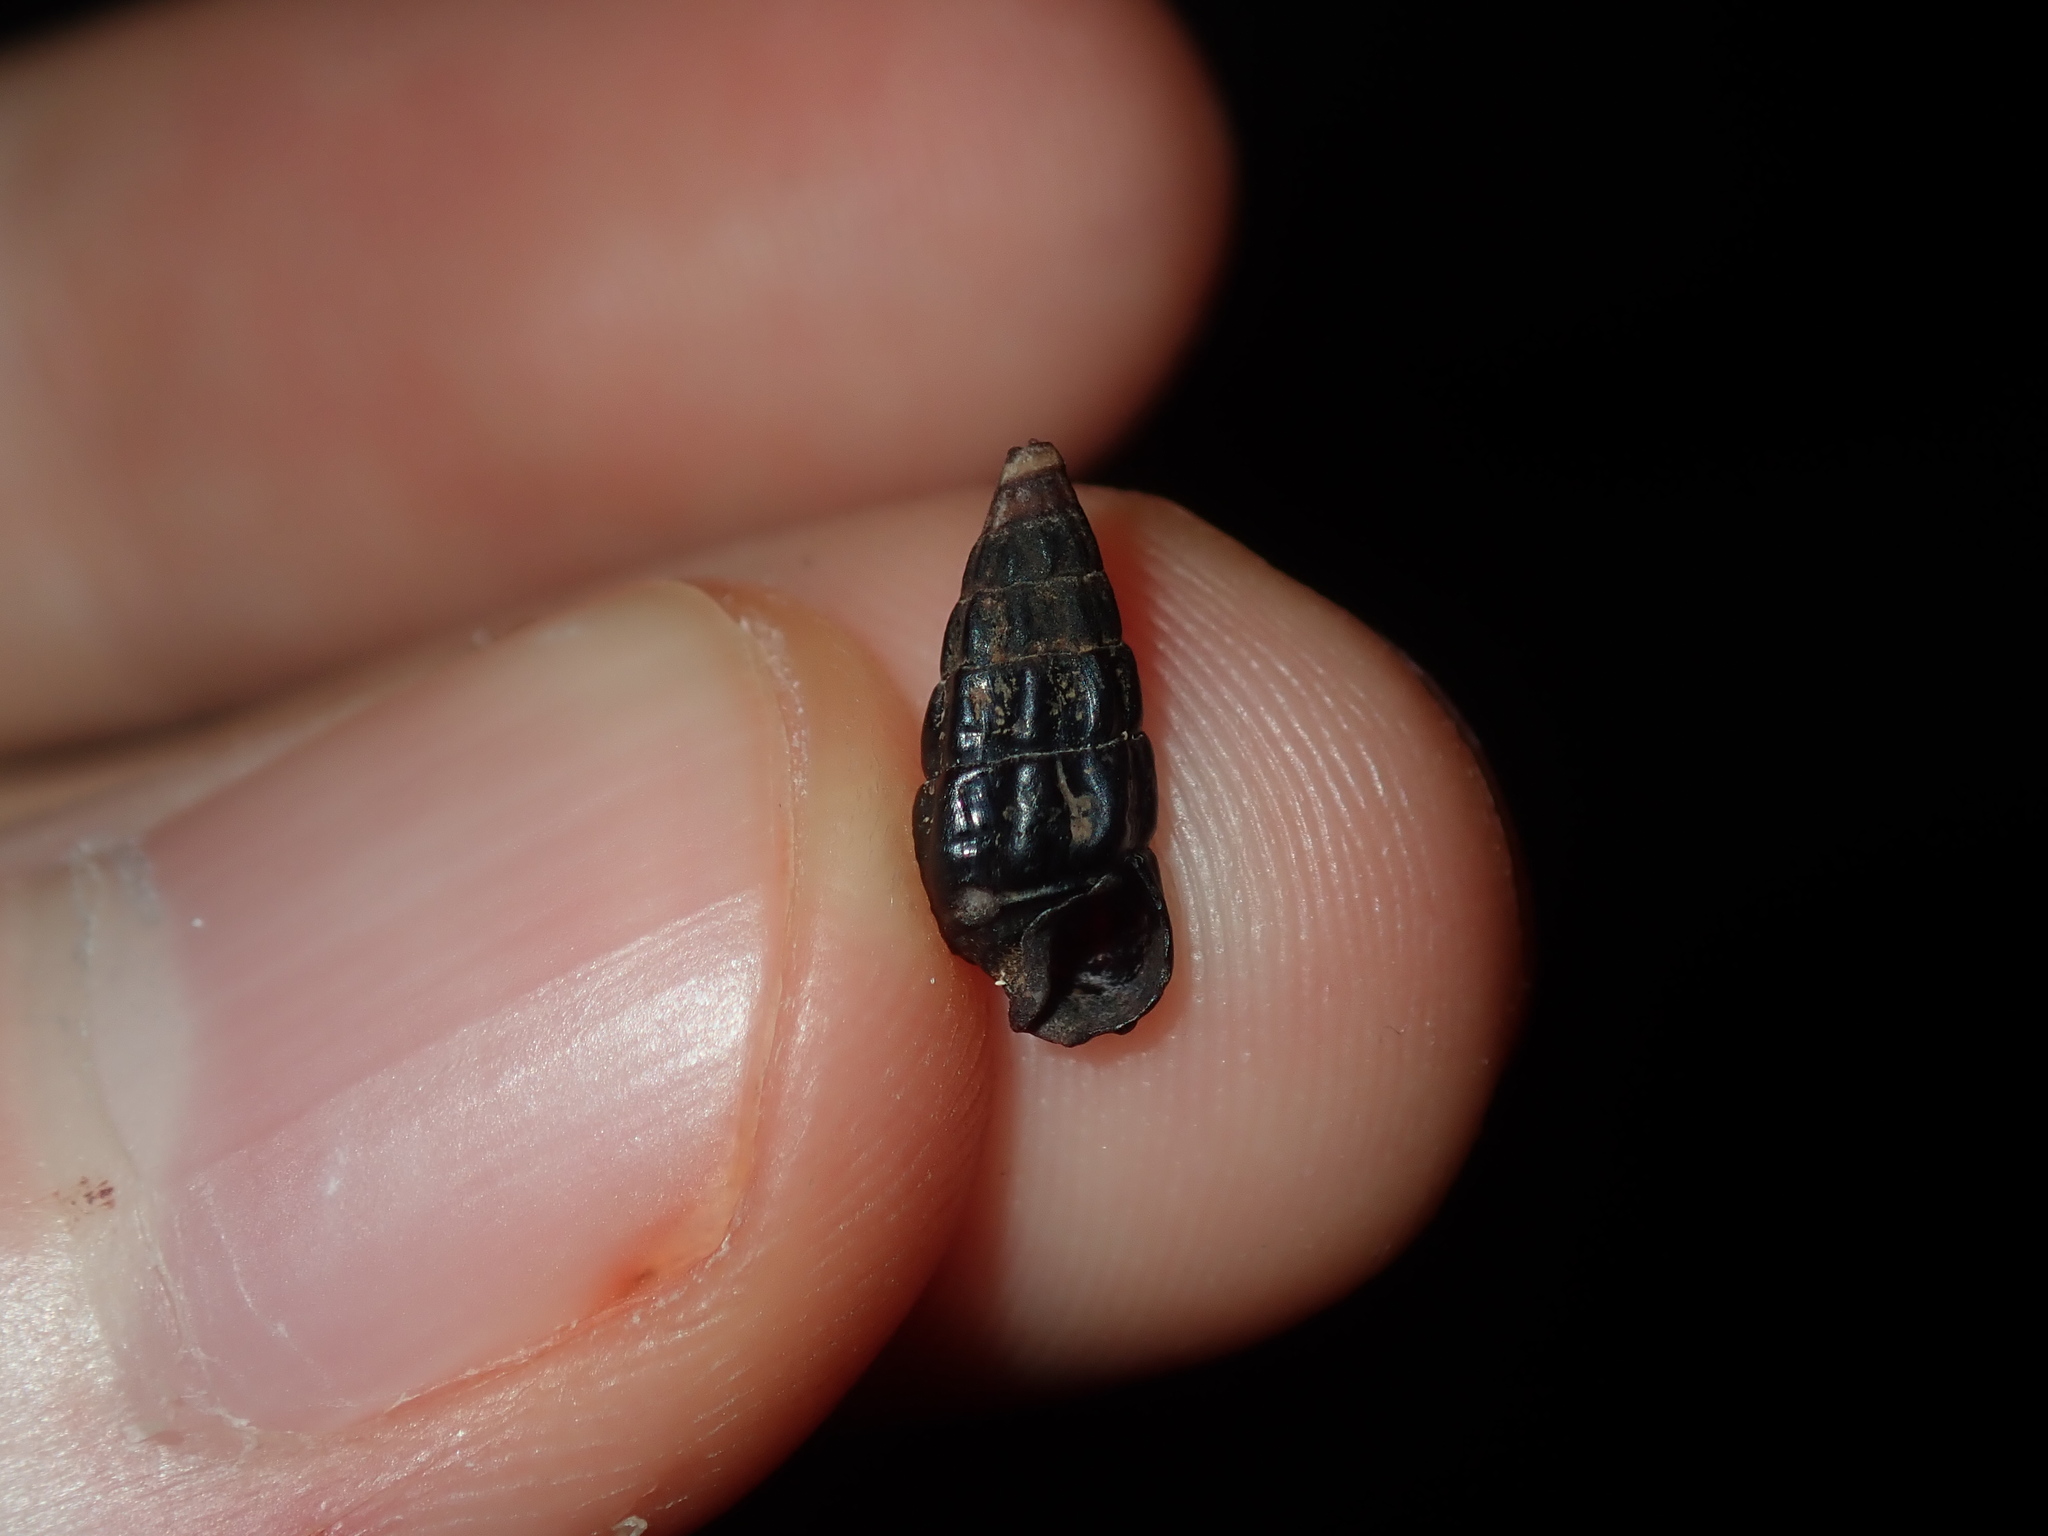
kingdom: Animalia
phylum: Mollusca
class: Gastropoda
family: Batillariidae
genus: Zeacumantus
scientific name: Zeacumantus subcarinatus
